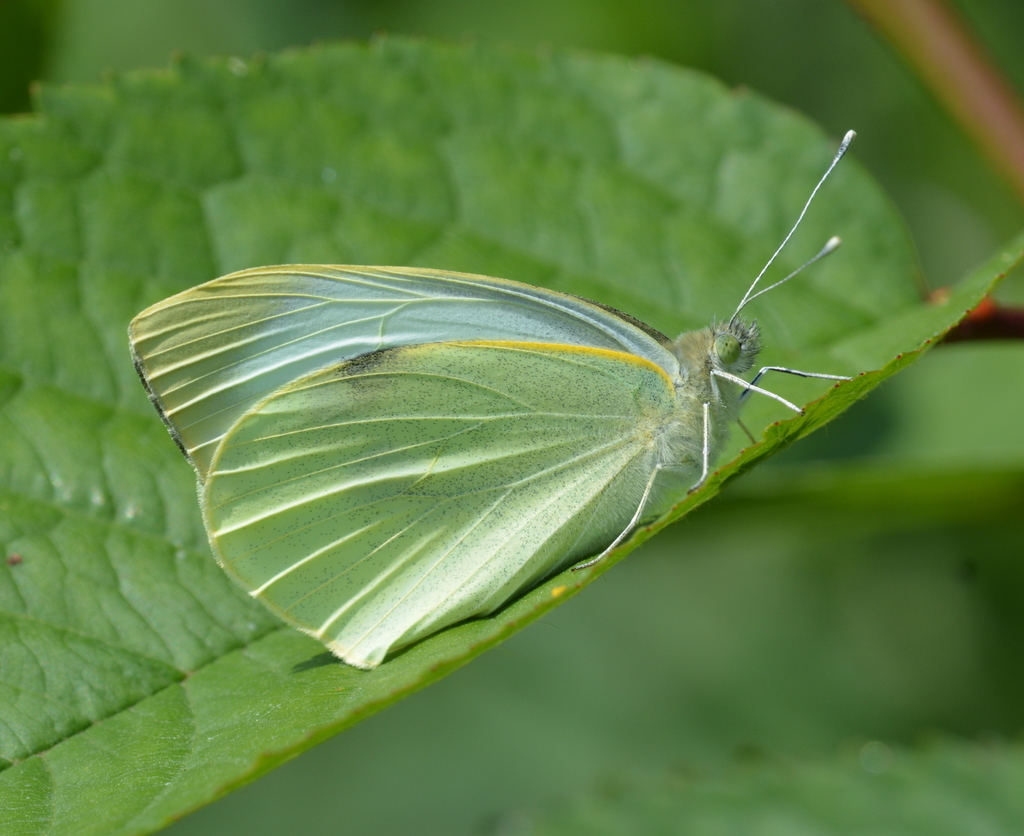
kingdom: Animalia
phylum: Arthropoda
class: Insecta
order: Lepidoptera
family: Pieridae
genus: Pieris
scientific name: Pieris brassicae
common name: Large white
